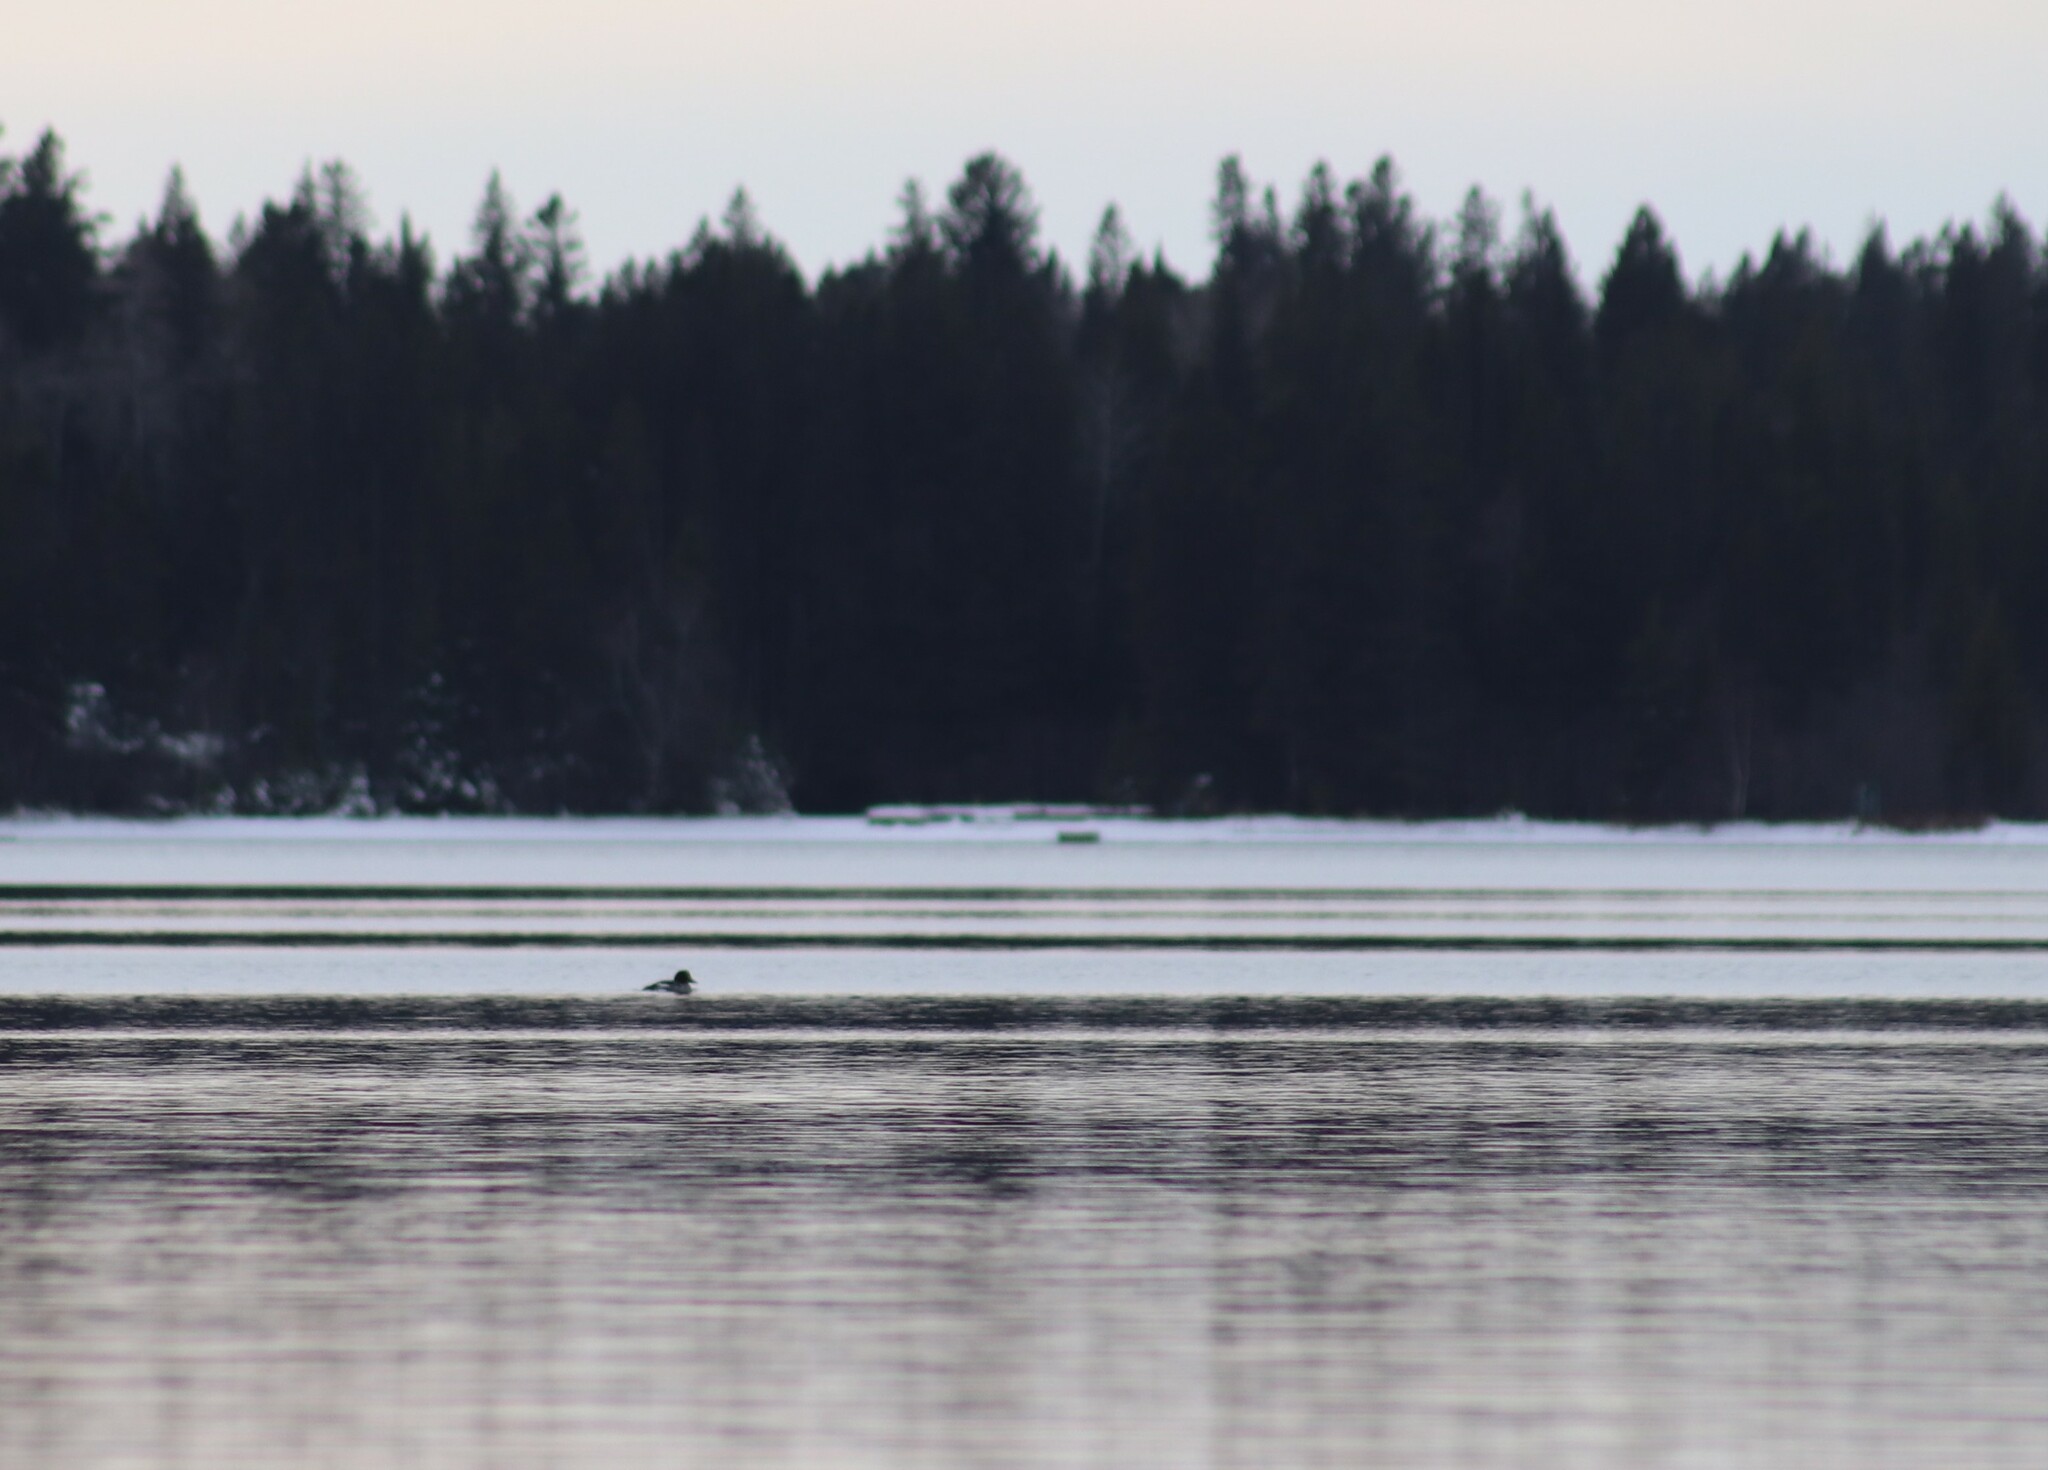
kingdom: Animalia
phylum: Chordata
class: Aves
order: Anseriformes
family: Anatidae
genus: Bucephala
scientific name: Bucephala clangula
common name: Common goldeneye
